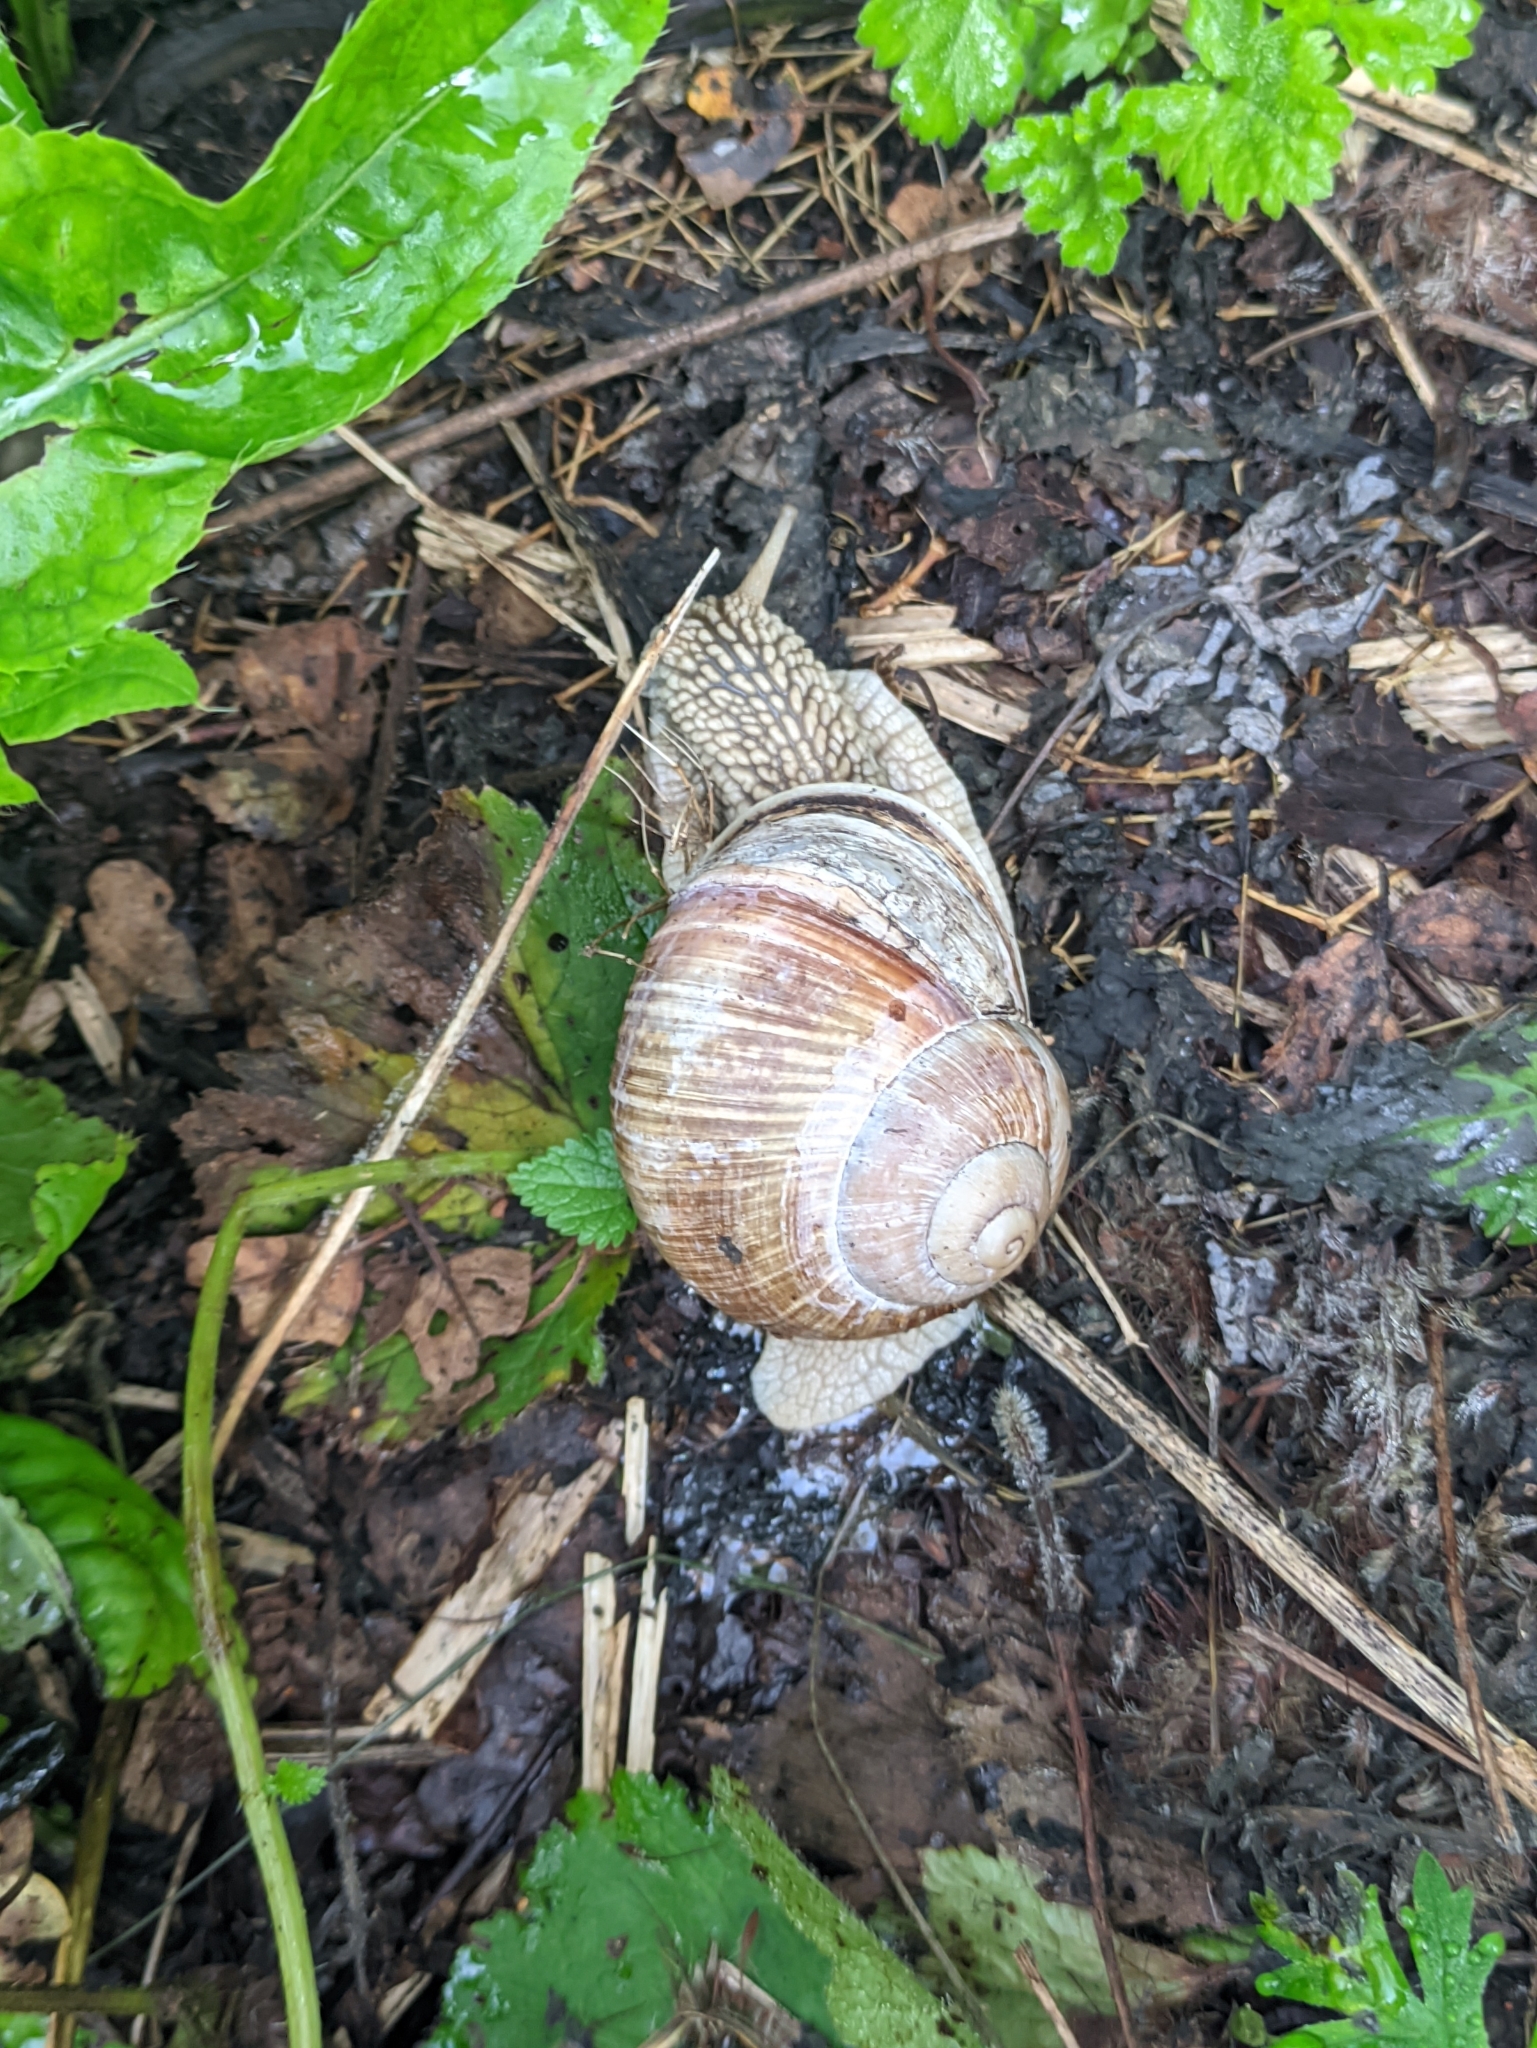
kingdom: Animalia
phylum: Mollusca
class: Gastropoda
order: Stylommatophora
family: Helicidae
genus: Helix
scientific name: Helix pomatia
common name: Roman snail
